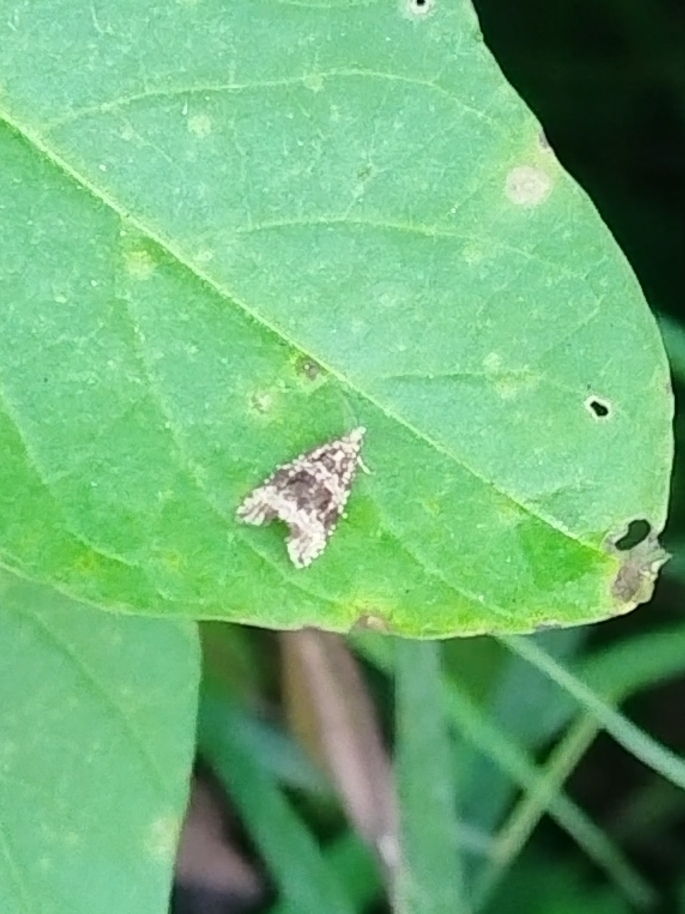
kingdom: Animalia
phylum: Arthropoda
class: Insecta
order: Lepidoptera
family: Tortricidae
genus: Syricoris
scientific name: Syricoris lacunana
